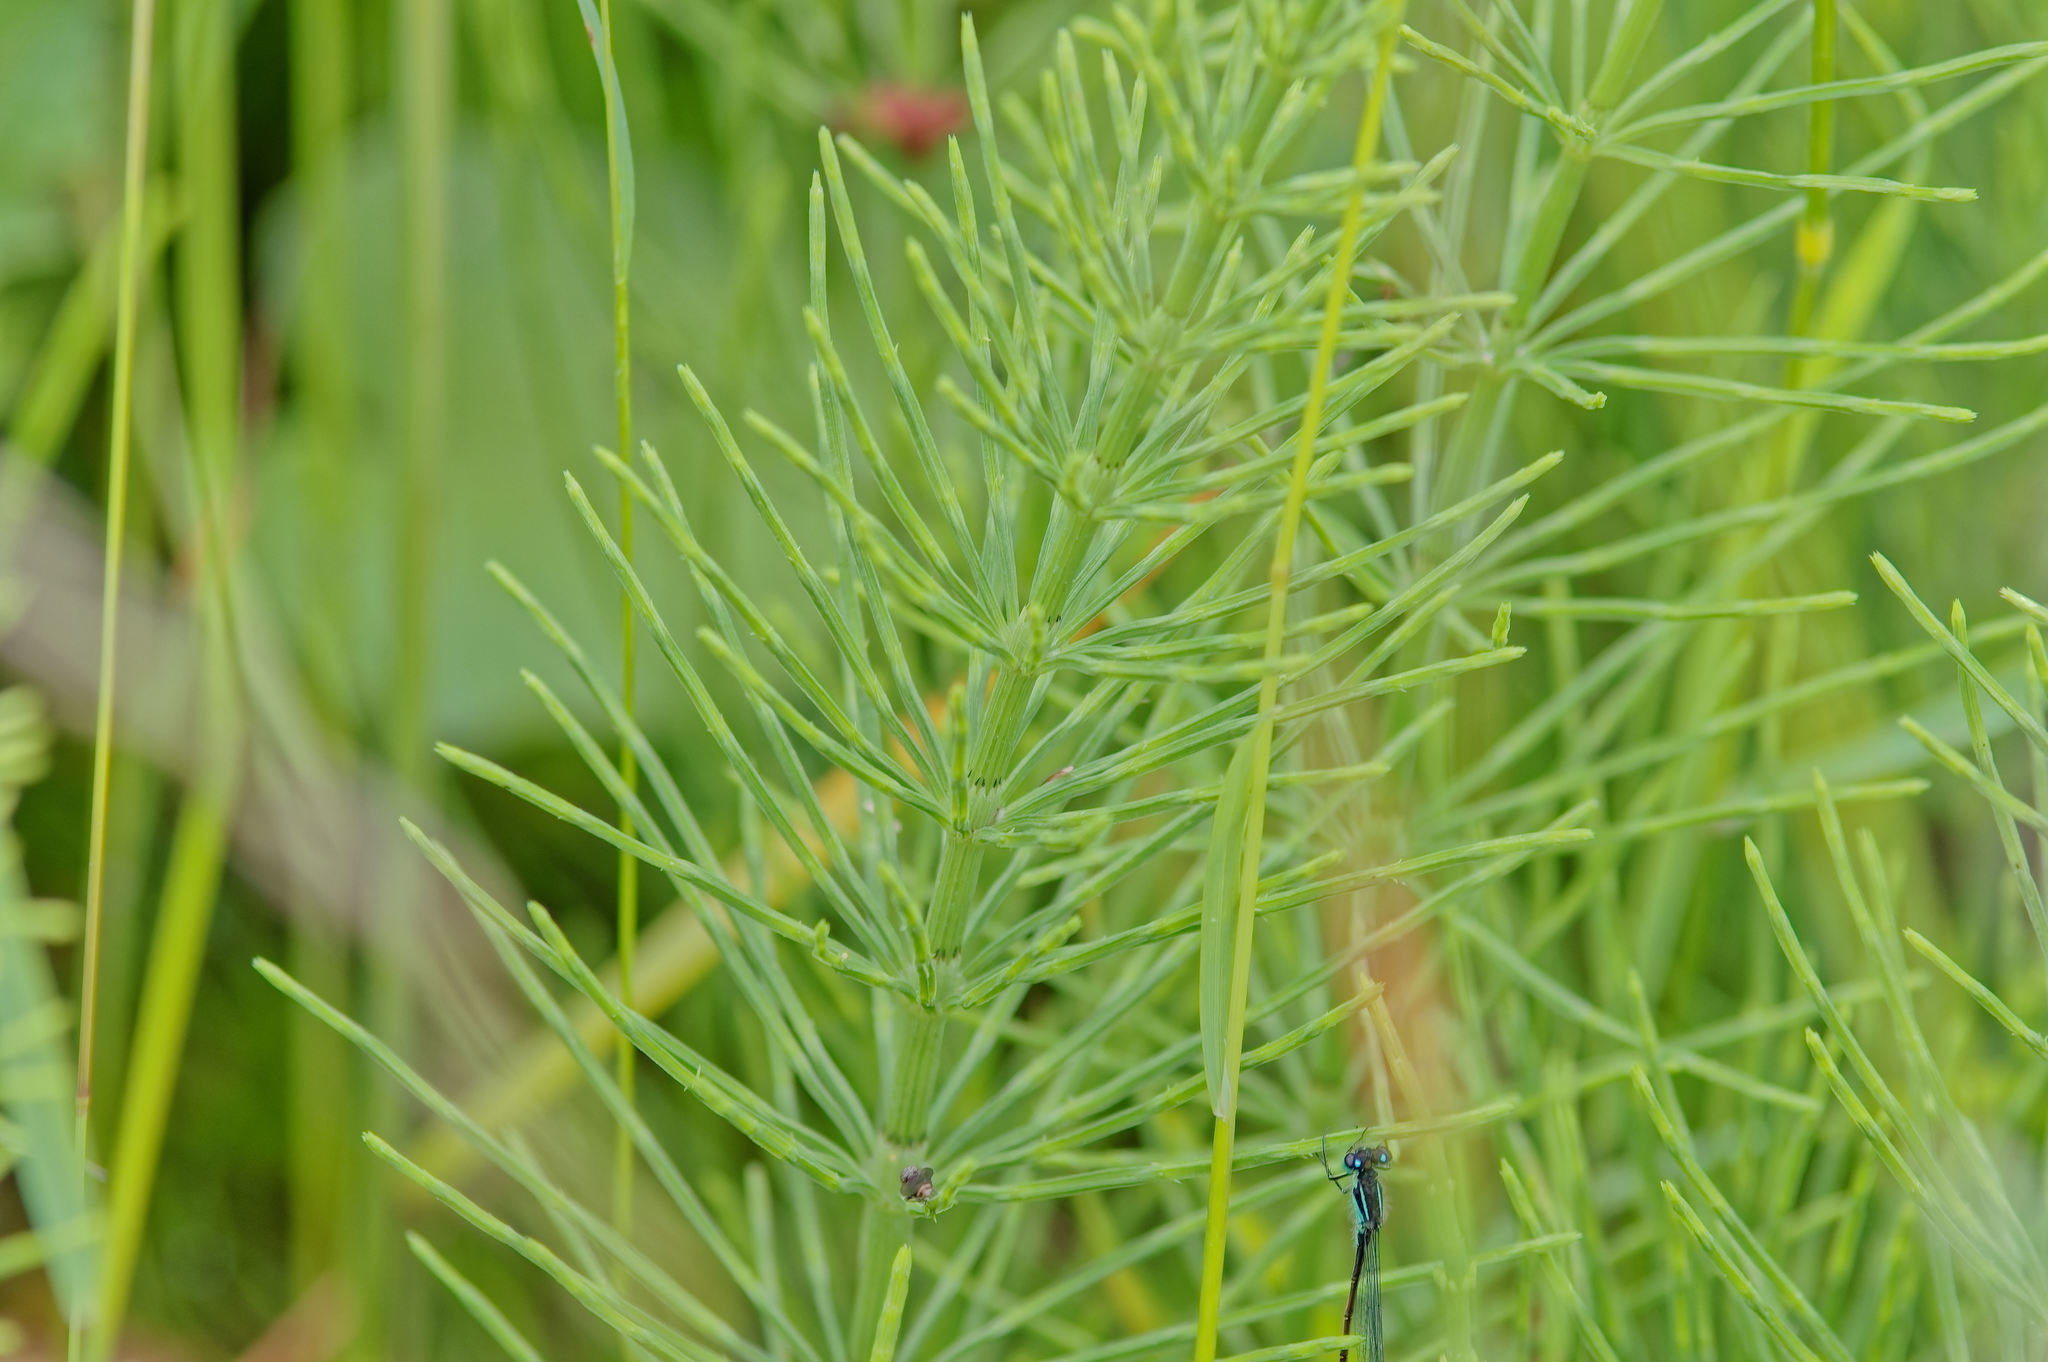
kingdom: Plantae
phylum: Tracheophyta
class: Polypodiopsida
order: Equisetales
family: Equisetaceae
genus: Equisetum
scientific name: Equisetum arvense
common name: Field horsetail
